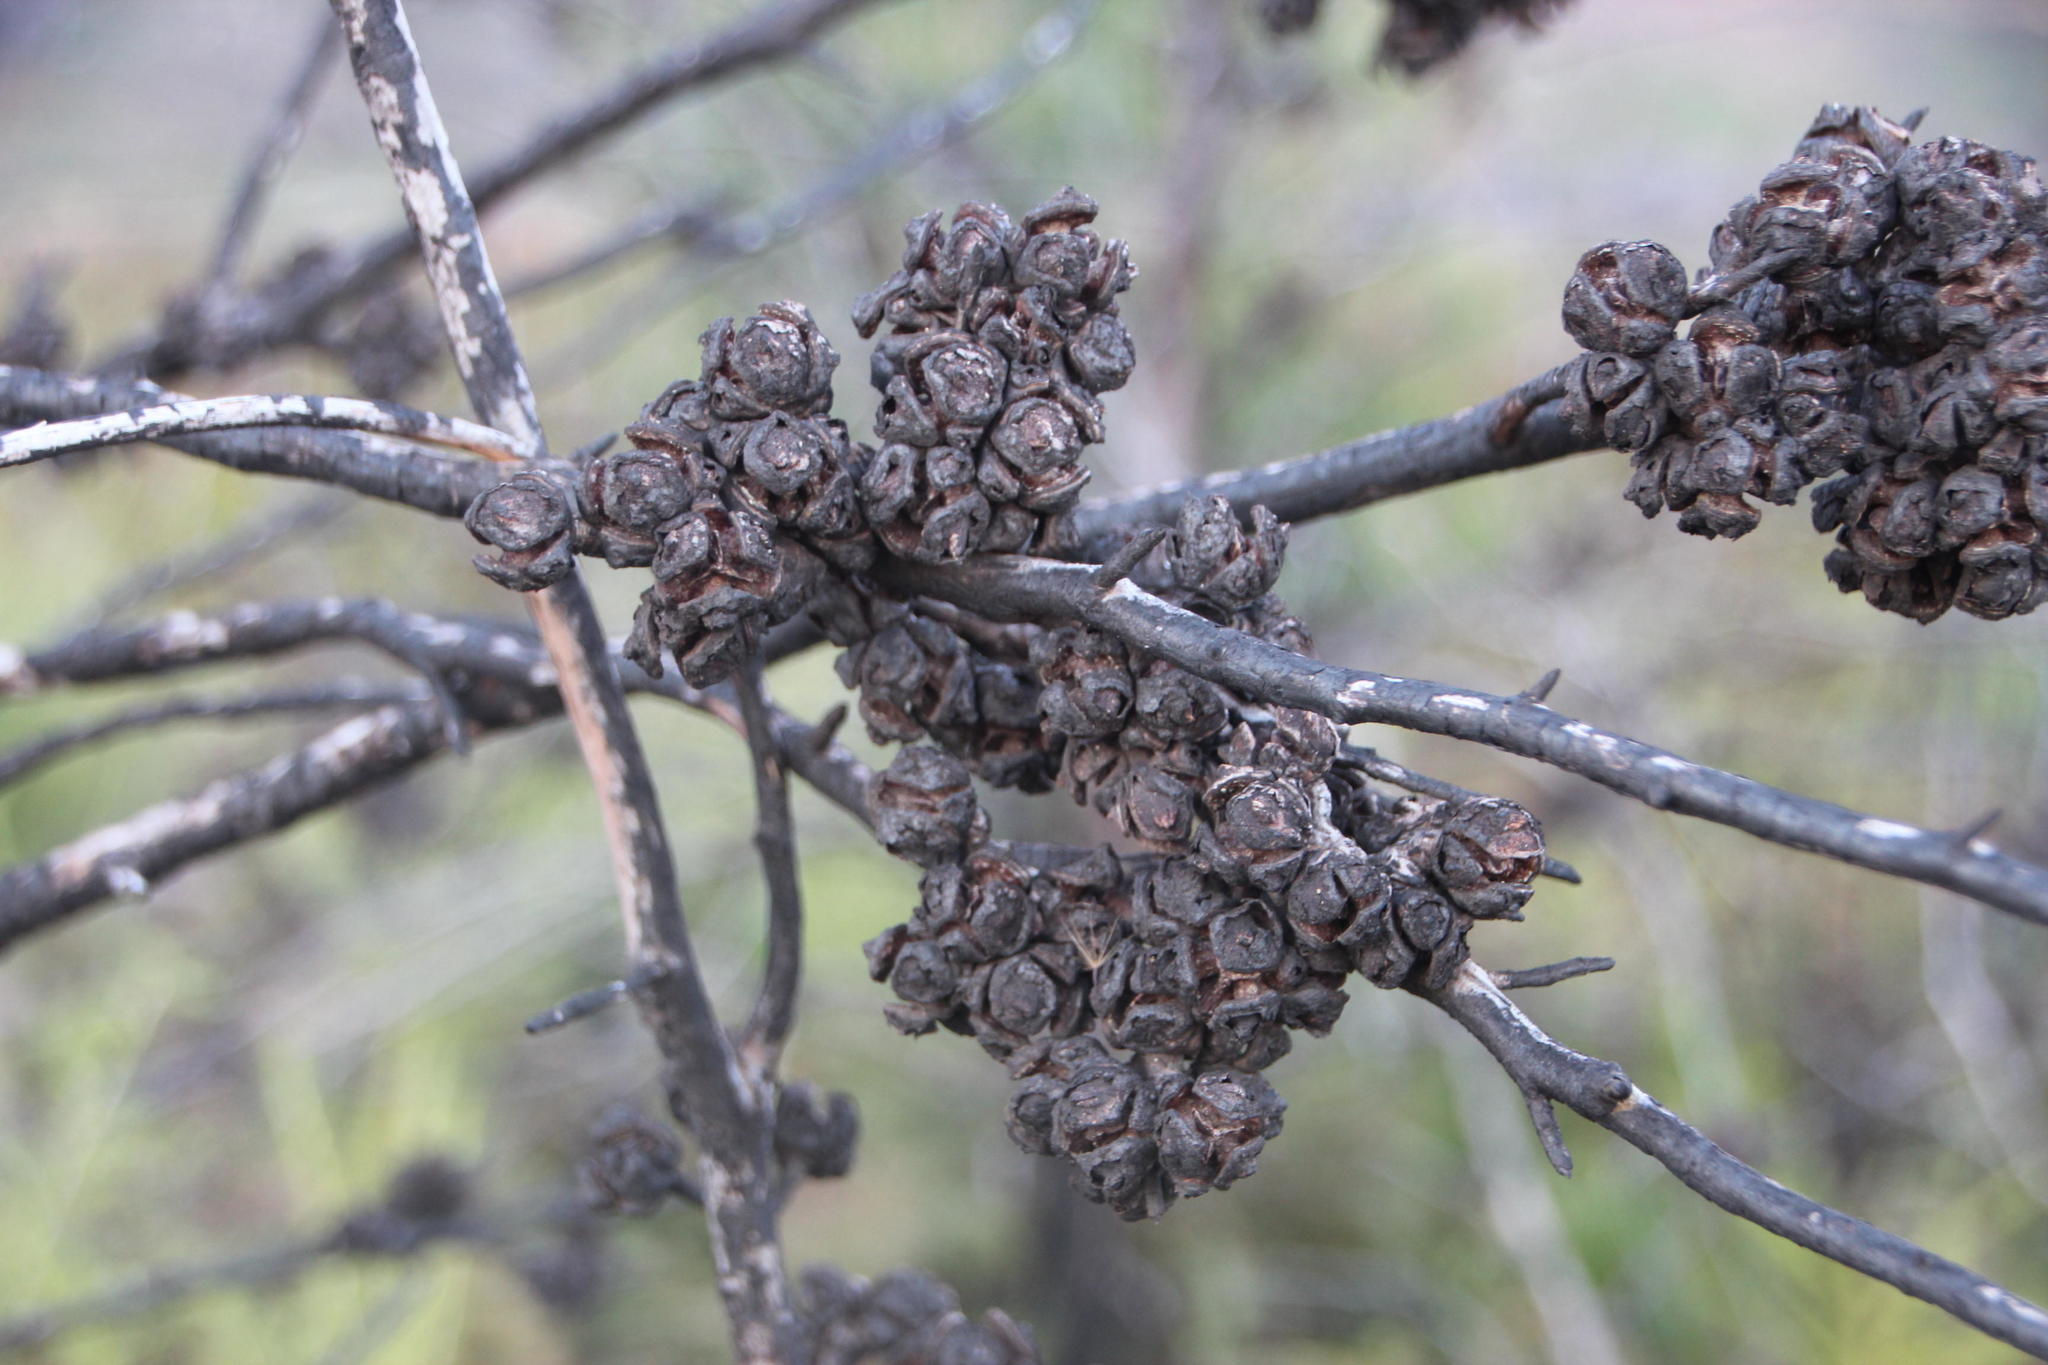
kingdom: Plantae
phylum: Tracheophyta
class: Pinopsida
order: Pinales
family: Cupressaceae
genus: Callitris
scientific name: Callitris rhomboidea
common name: Illawara mountain pine
